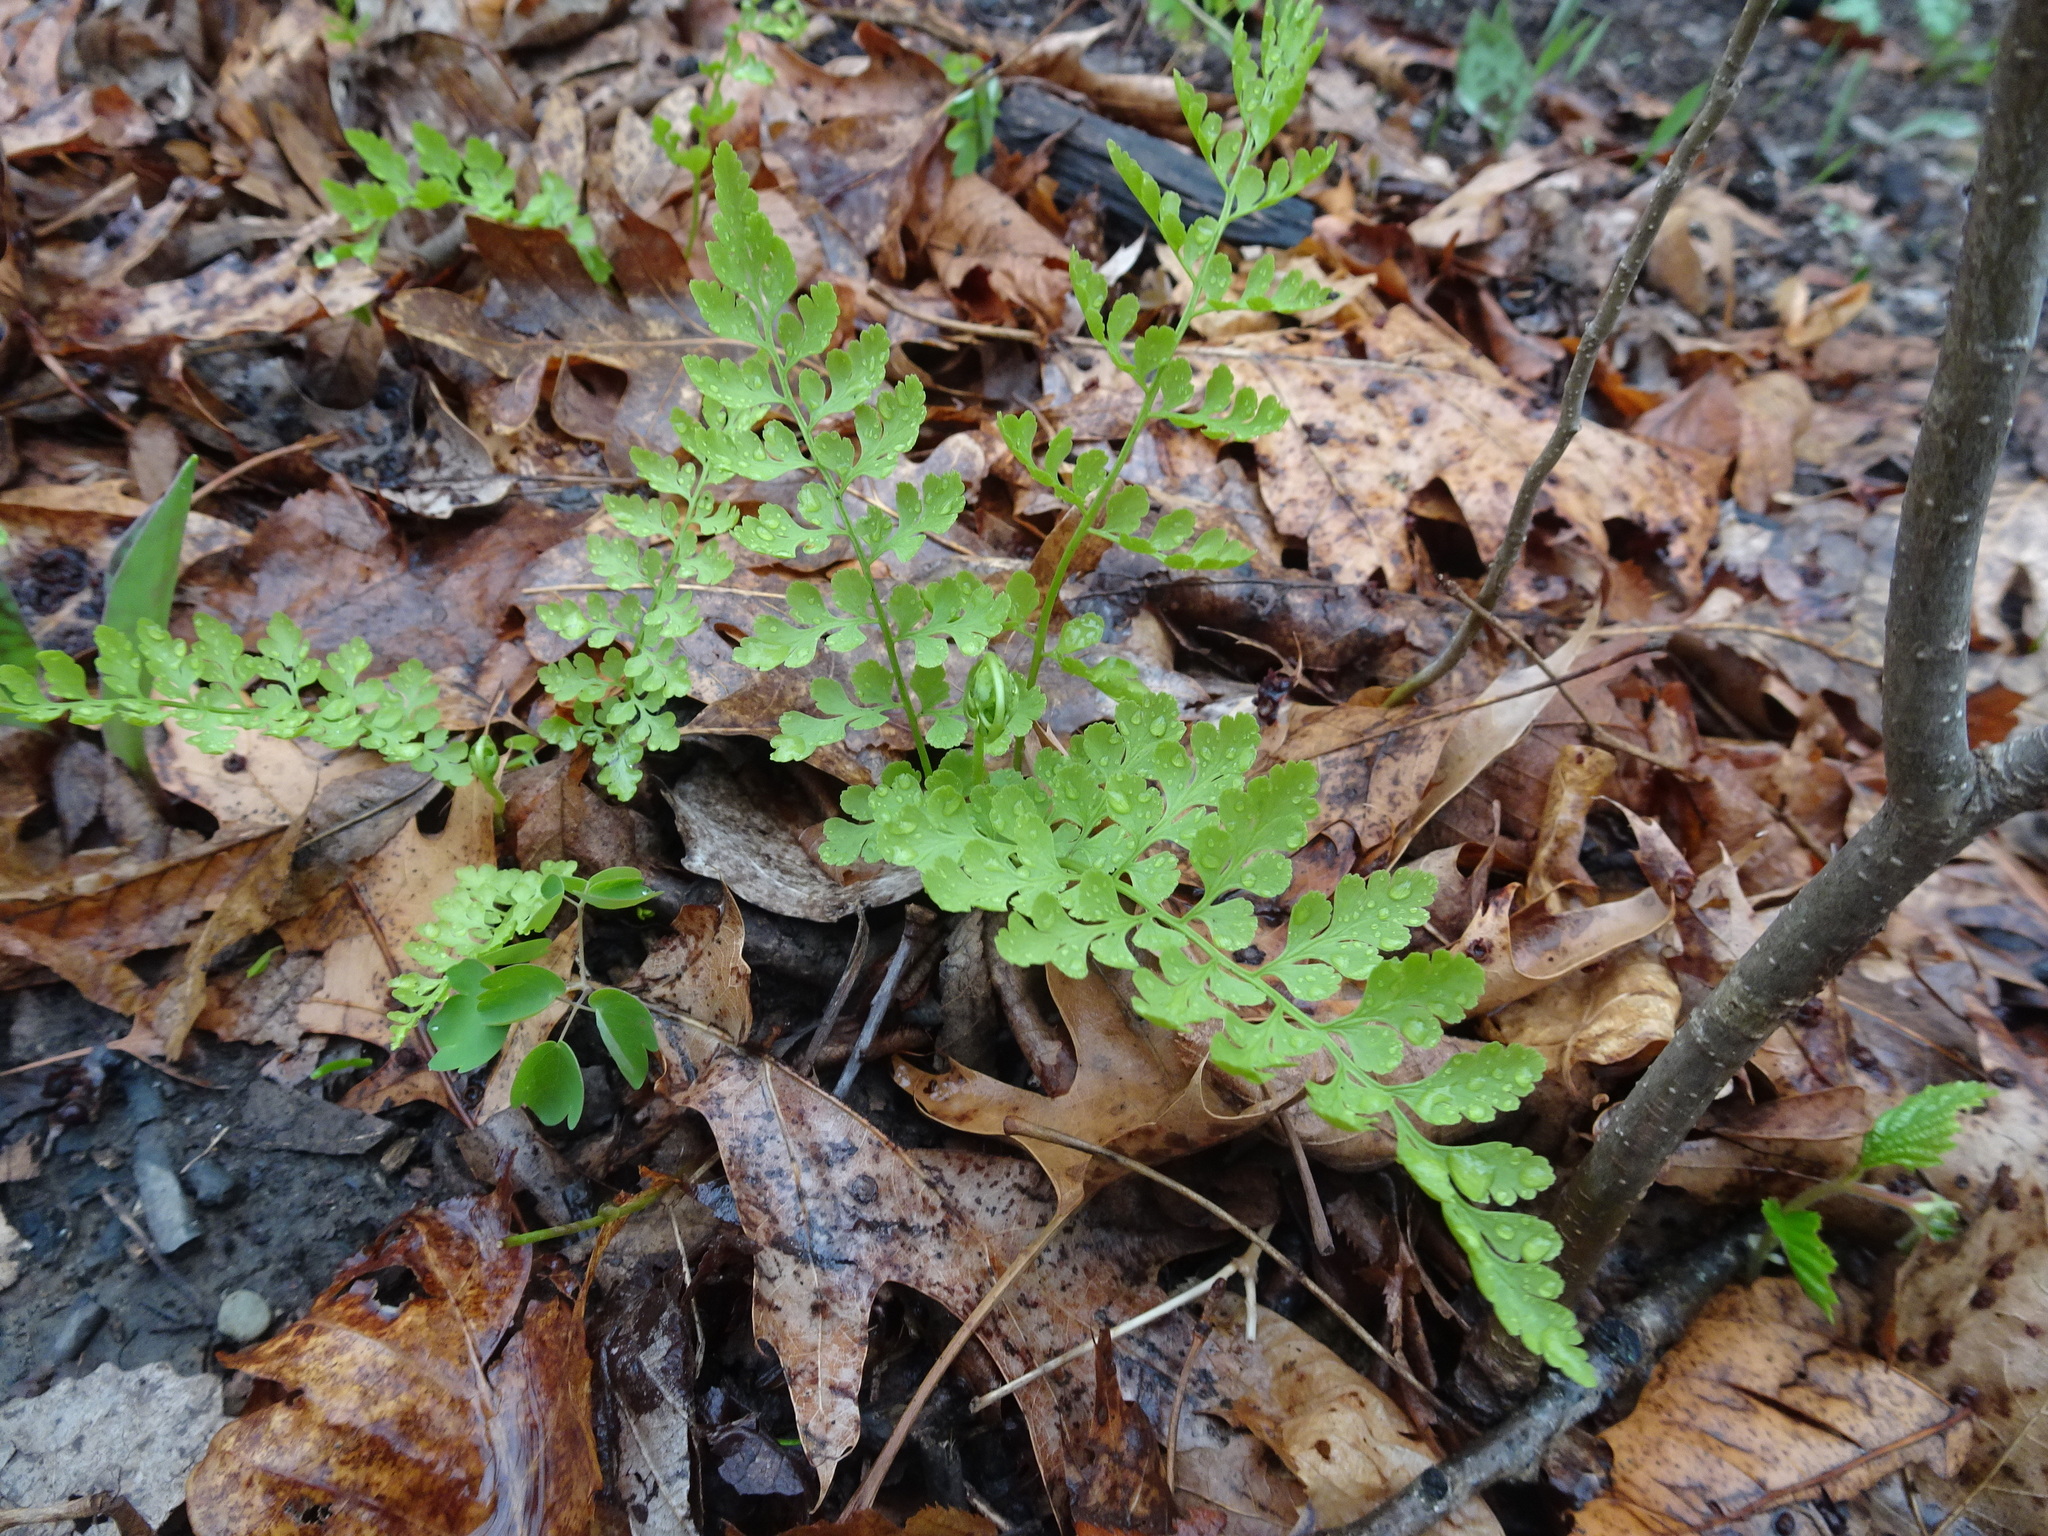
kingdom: Plantae
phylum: Tracheophyta
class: Polypodiopsida
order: Polypodiales
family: Cystopteridaceae
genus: Cystopteris
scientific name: Cystopteris protrusa
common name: Lowland brittle fern
